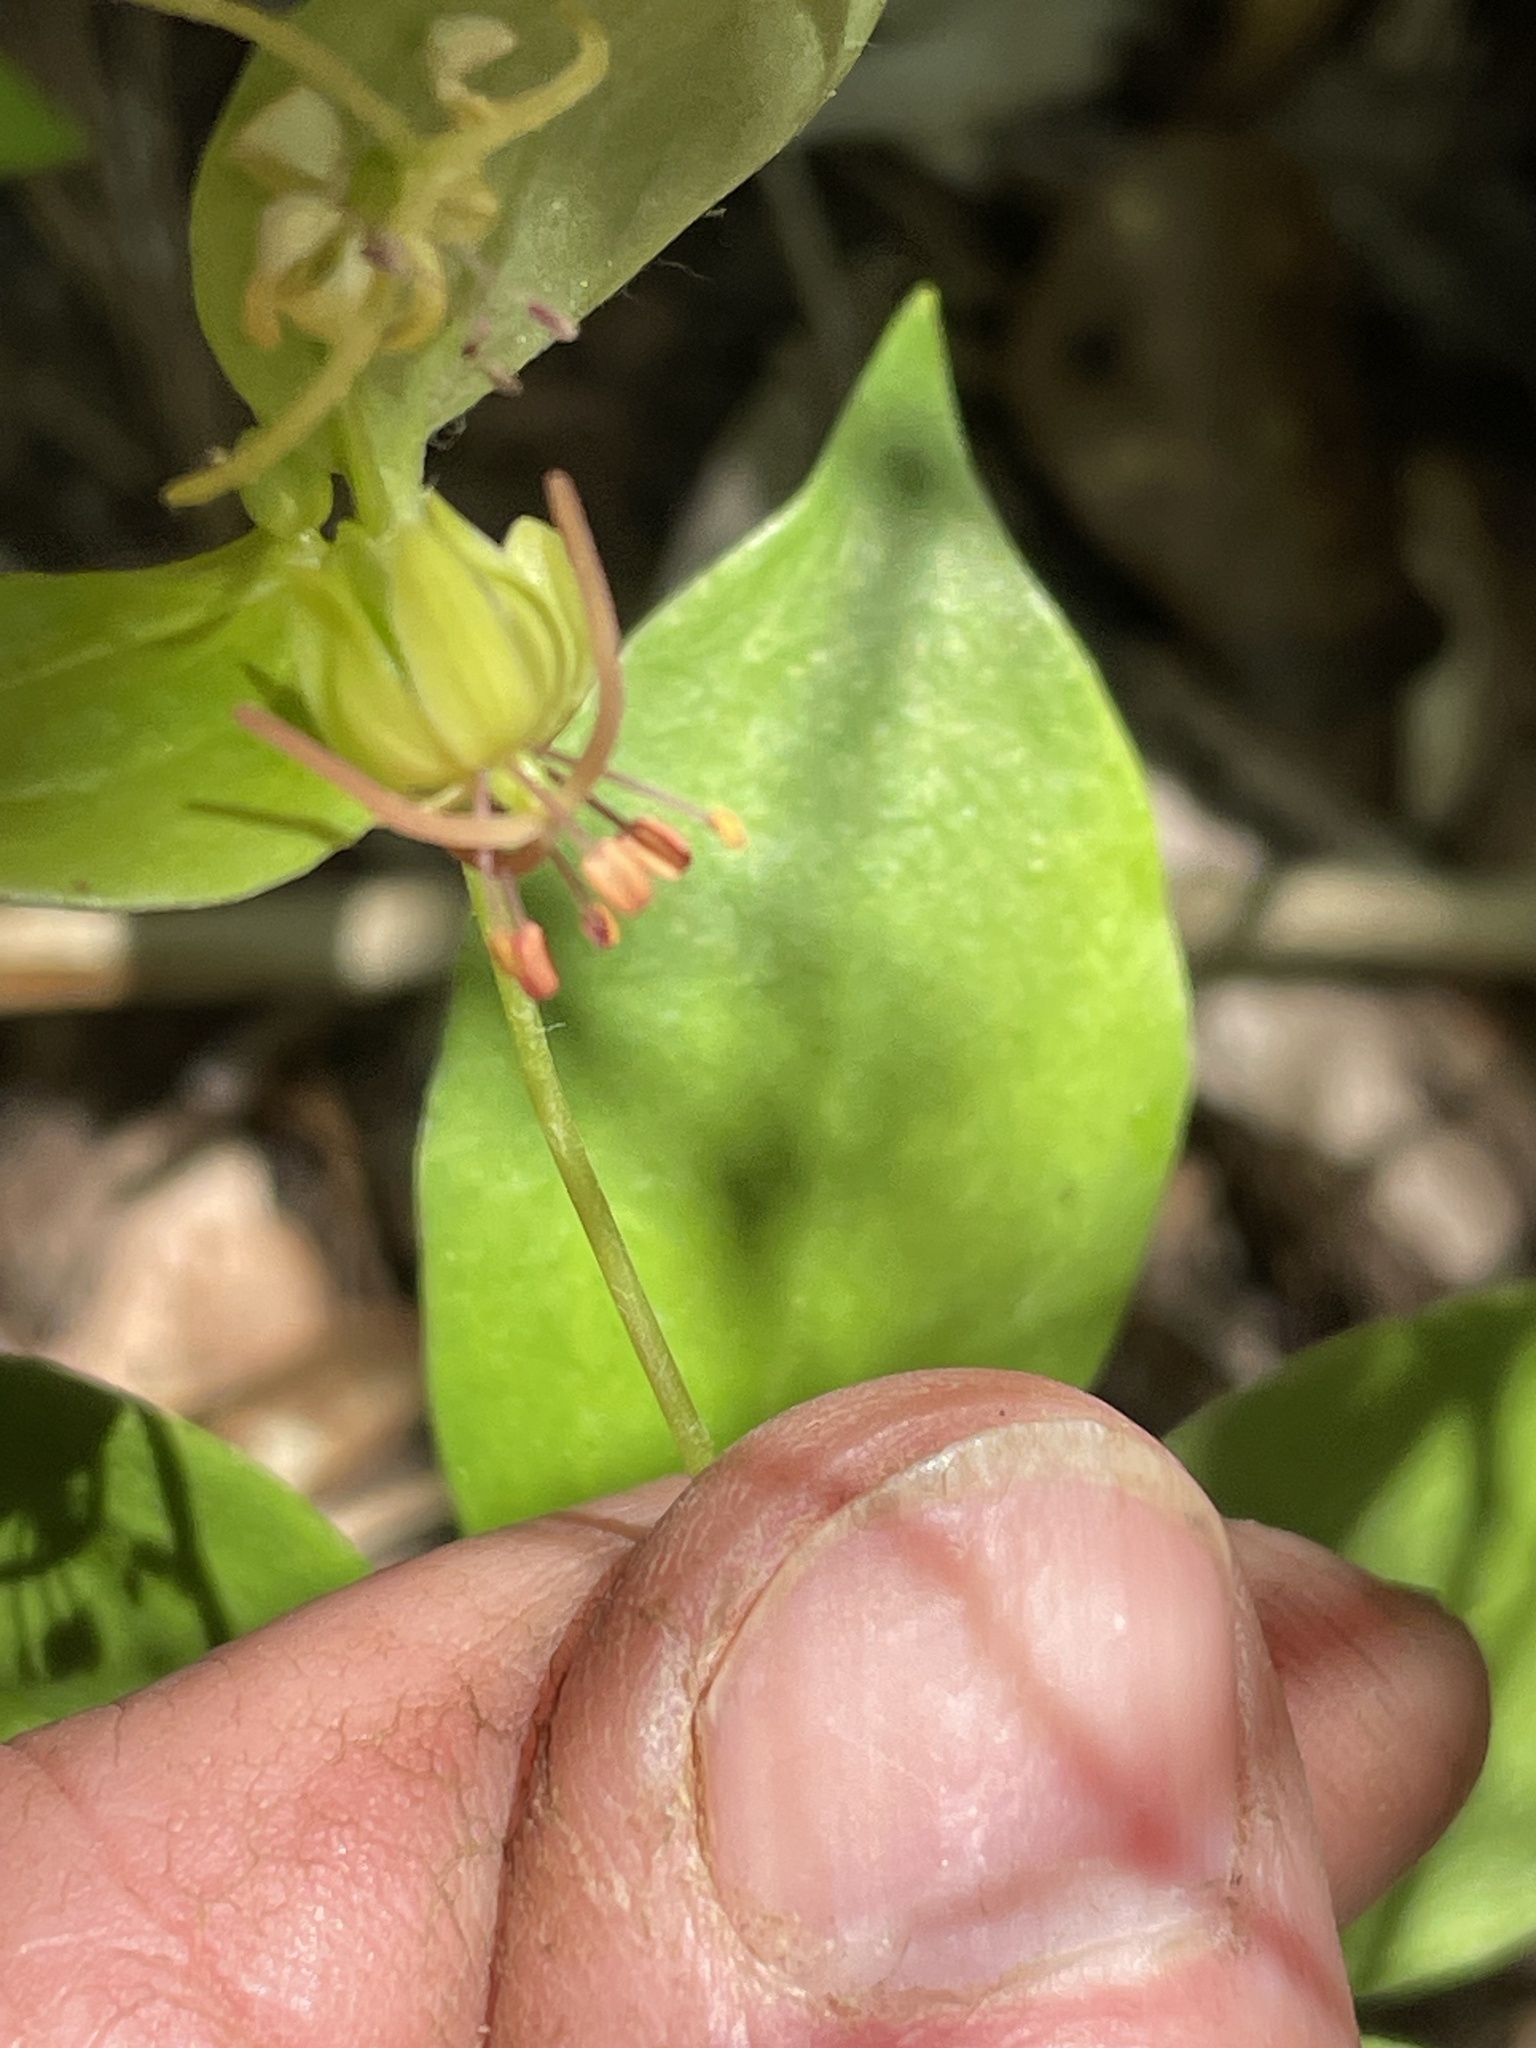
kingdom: Plantae
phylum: Tracheophyta
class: Liliopsida
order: Liliales
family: Liliaceae
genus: Medeola
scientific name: Medeola virginiana
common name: Indian cucumber-root
